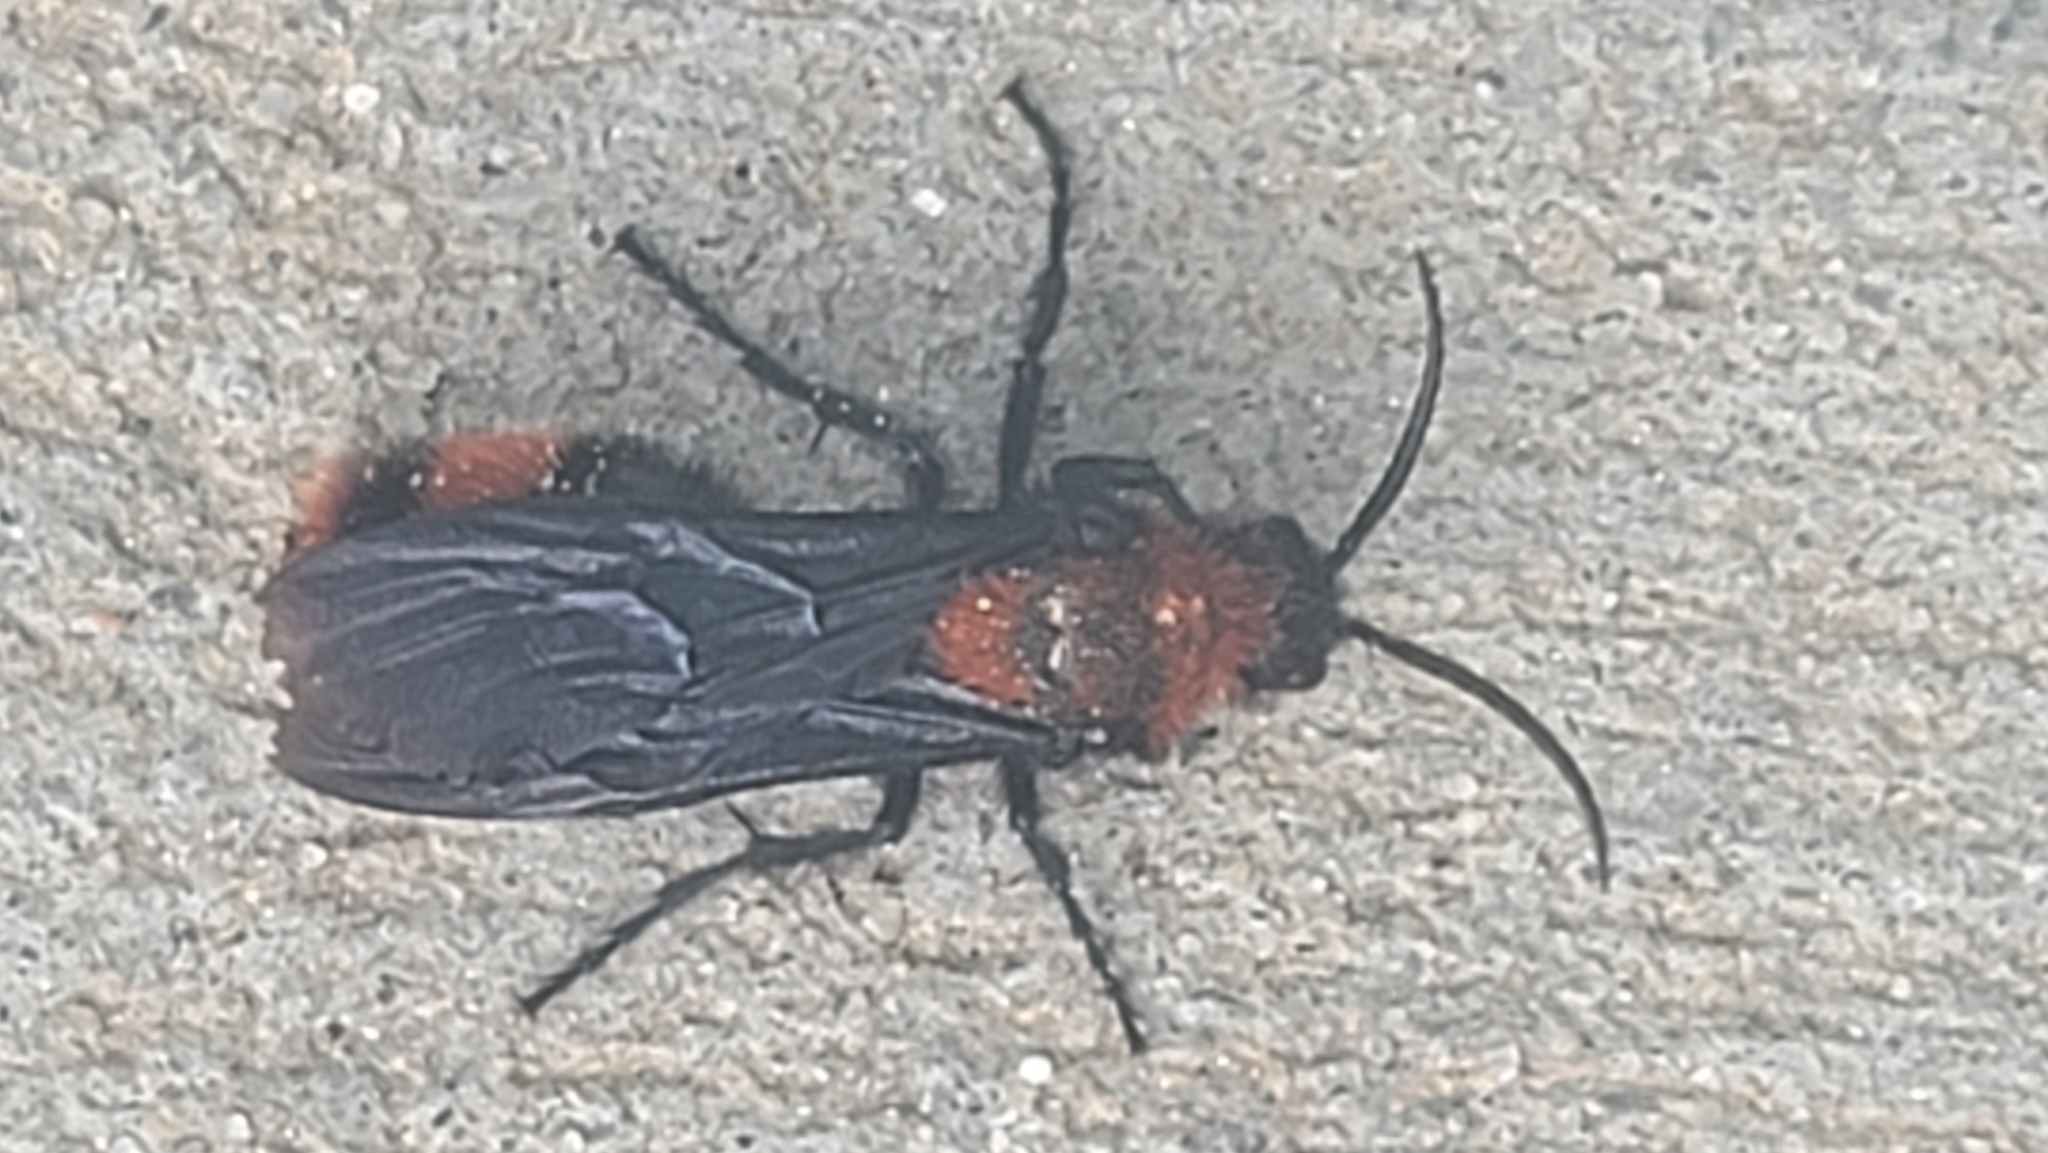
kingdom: Animalia
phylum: Arthropoda
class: Insecta
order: Hymenoptera
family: Mutillidae
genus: Dasymutilla
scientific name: Dasymutilla occidentalis
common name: Common eastern velvet ant
